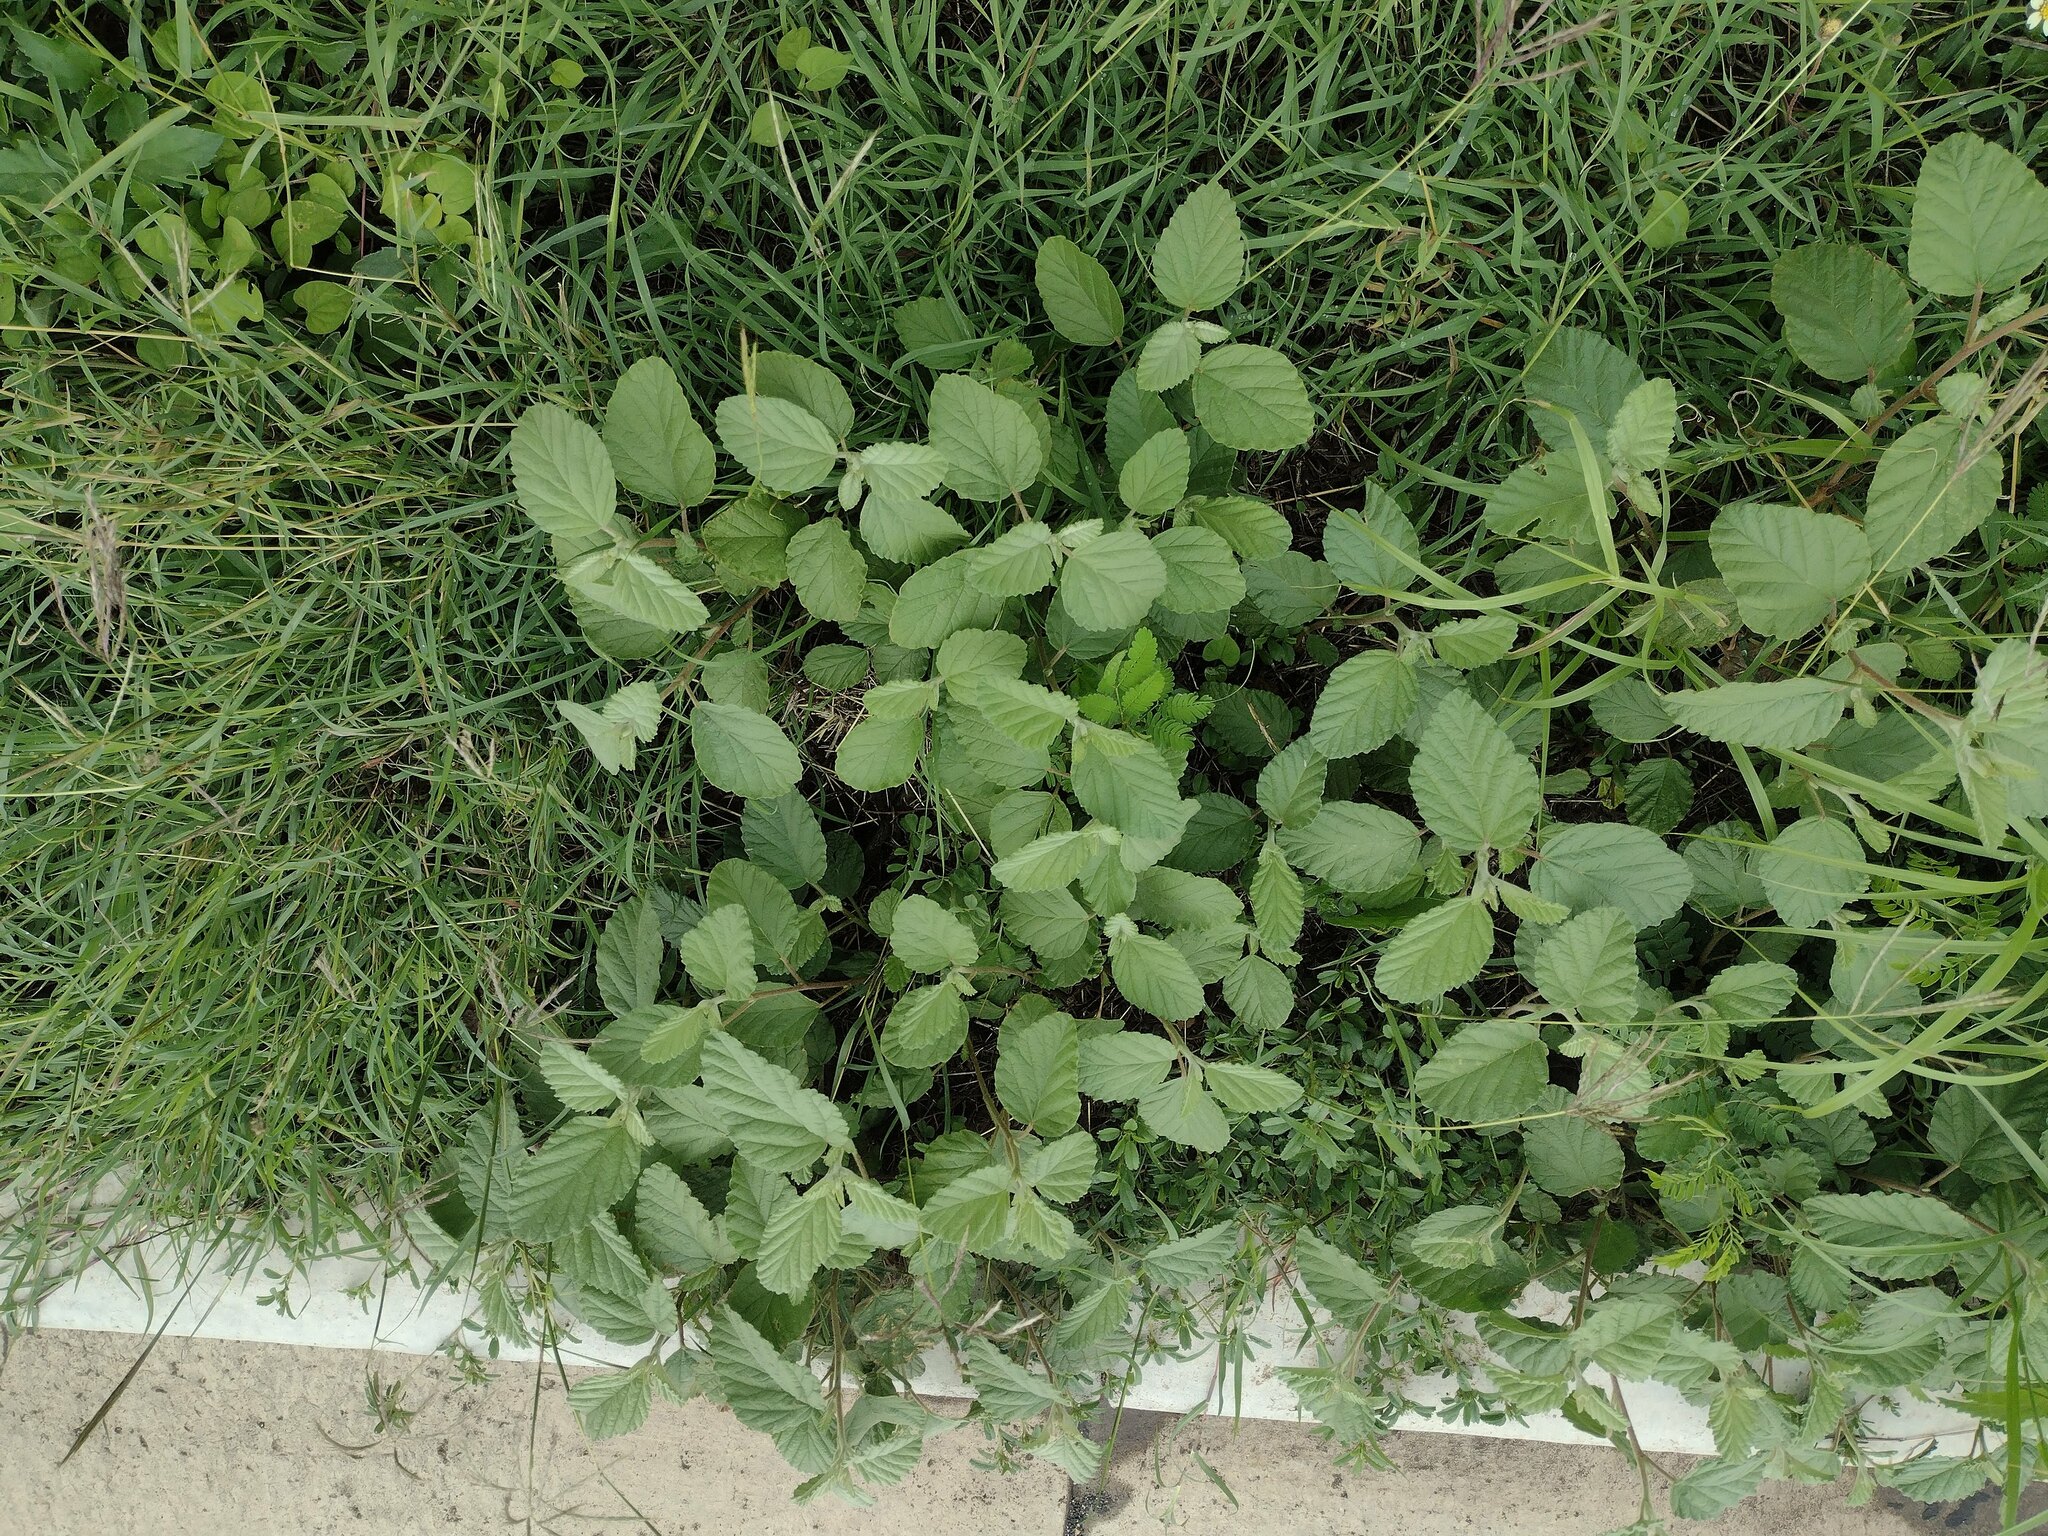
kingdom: Plantae
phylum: Tracheophyta
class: Magnoliopsida
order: Malvales
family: Malvaceae
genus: Waltheria
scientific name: Waltheria indica
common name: Leather-coat
